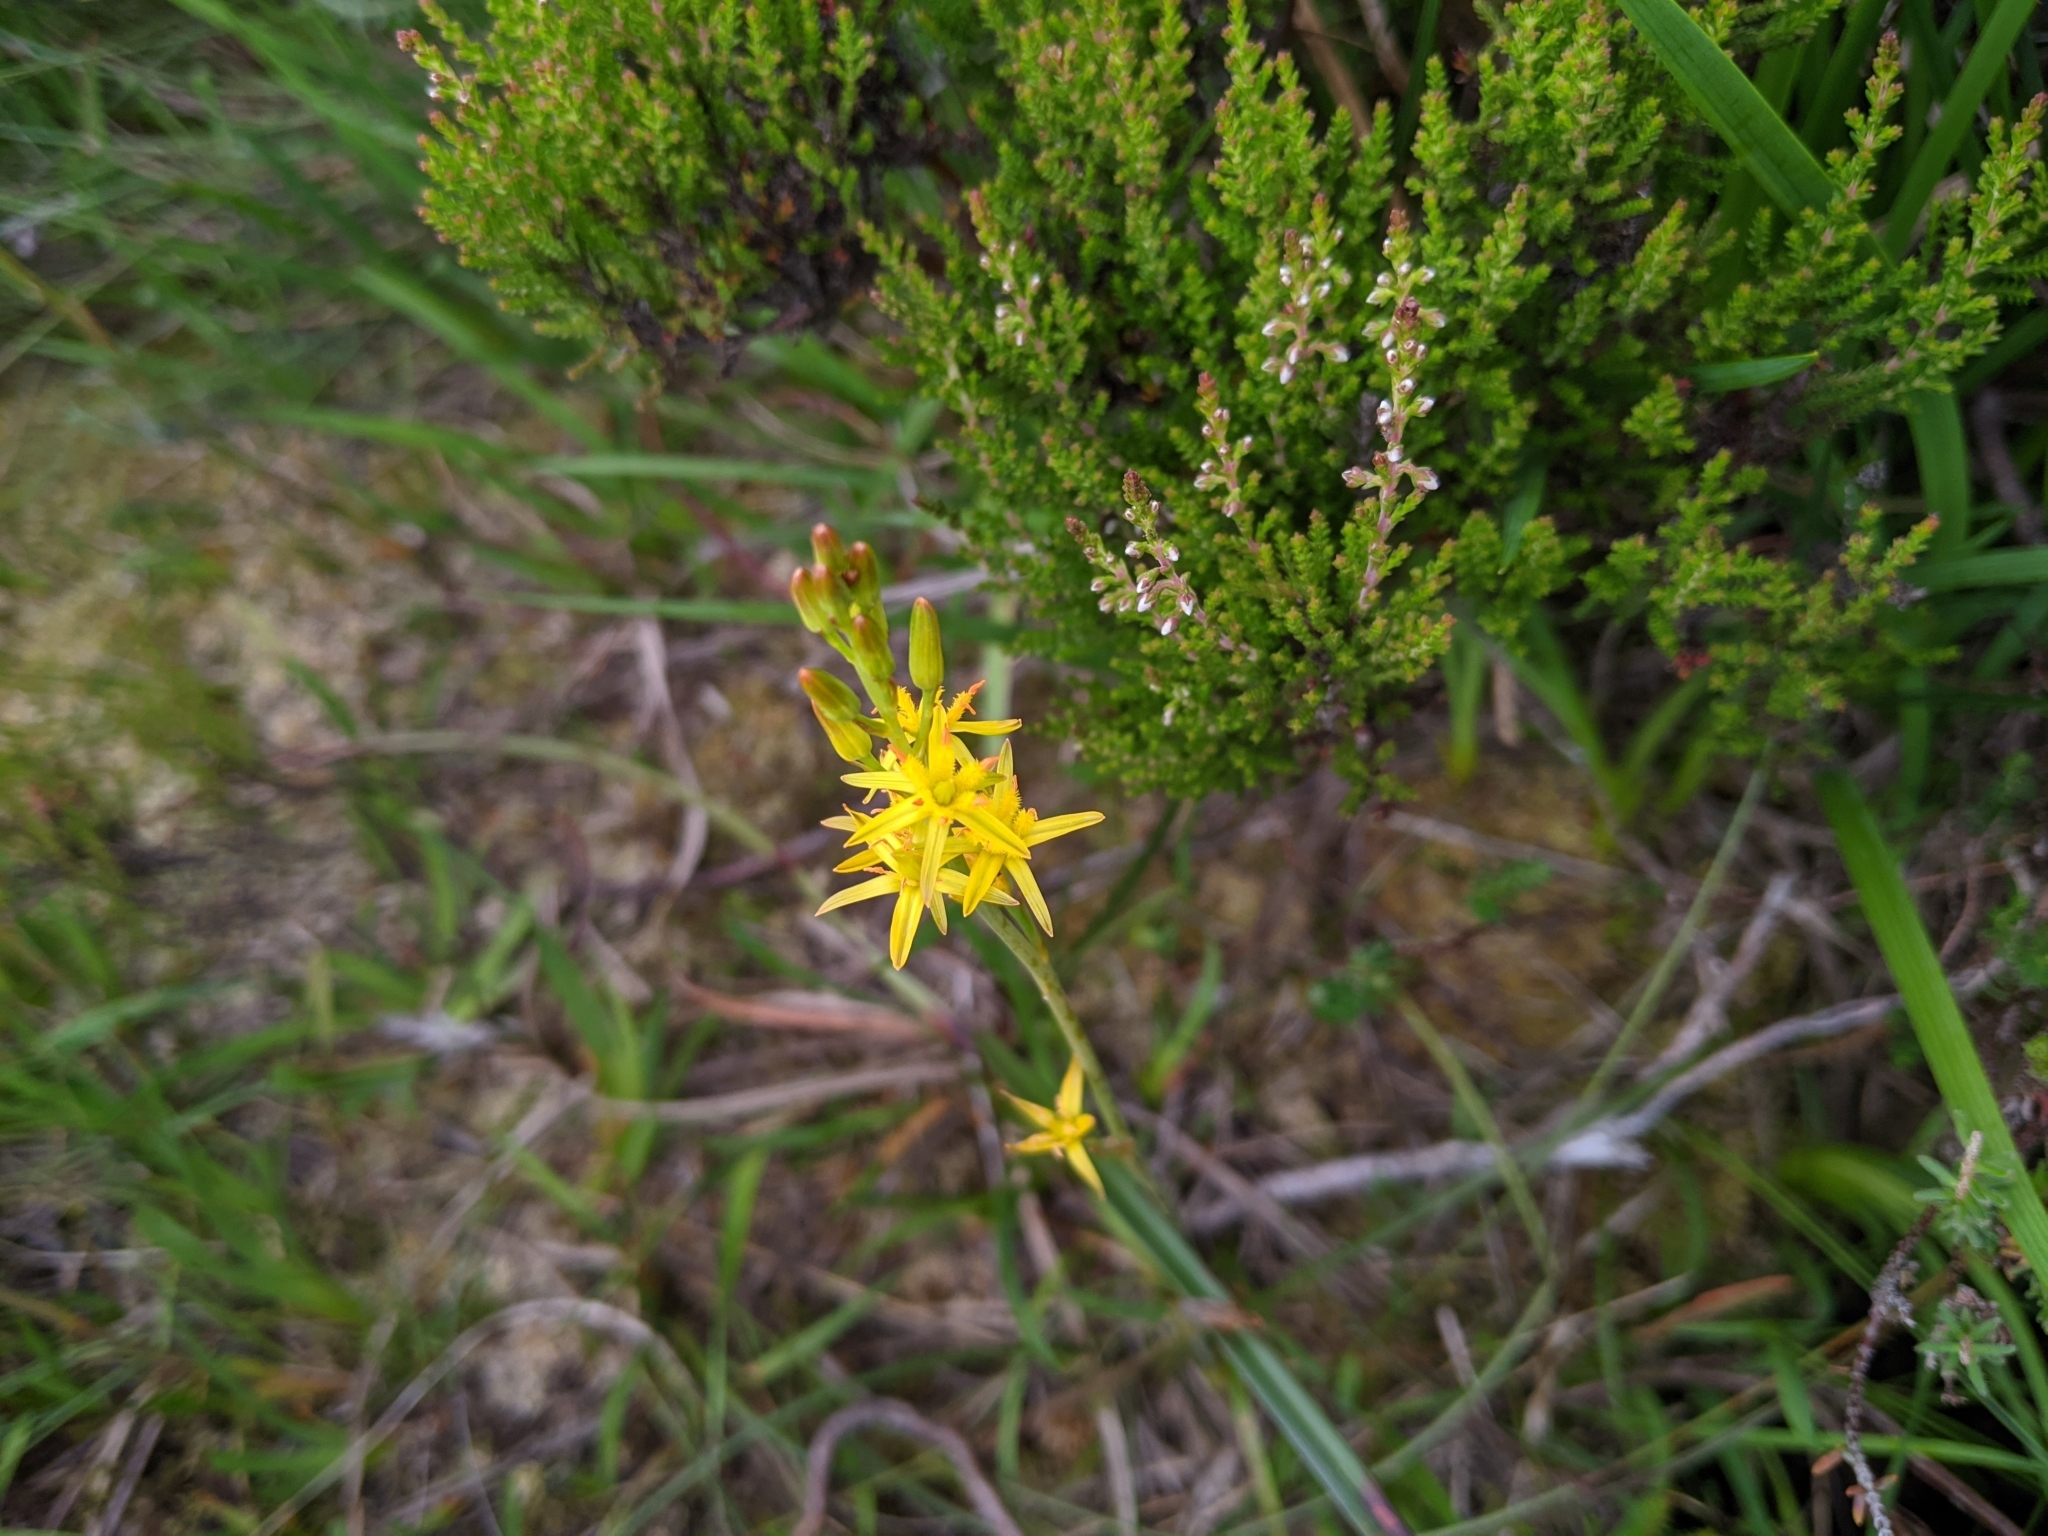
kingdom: Plantae
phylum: Tracheophyta
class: Liliopsida
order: Dioscoreales
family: Nartheciaceae
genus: Narthecium
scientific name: Narthecium ossifragum
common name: Bog asphodel
